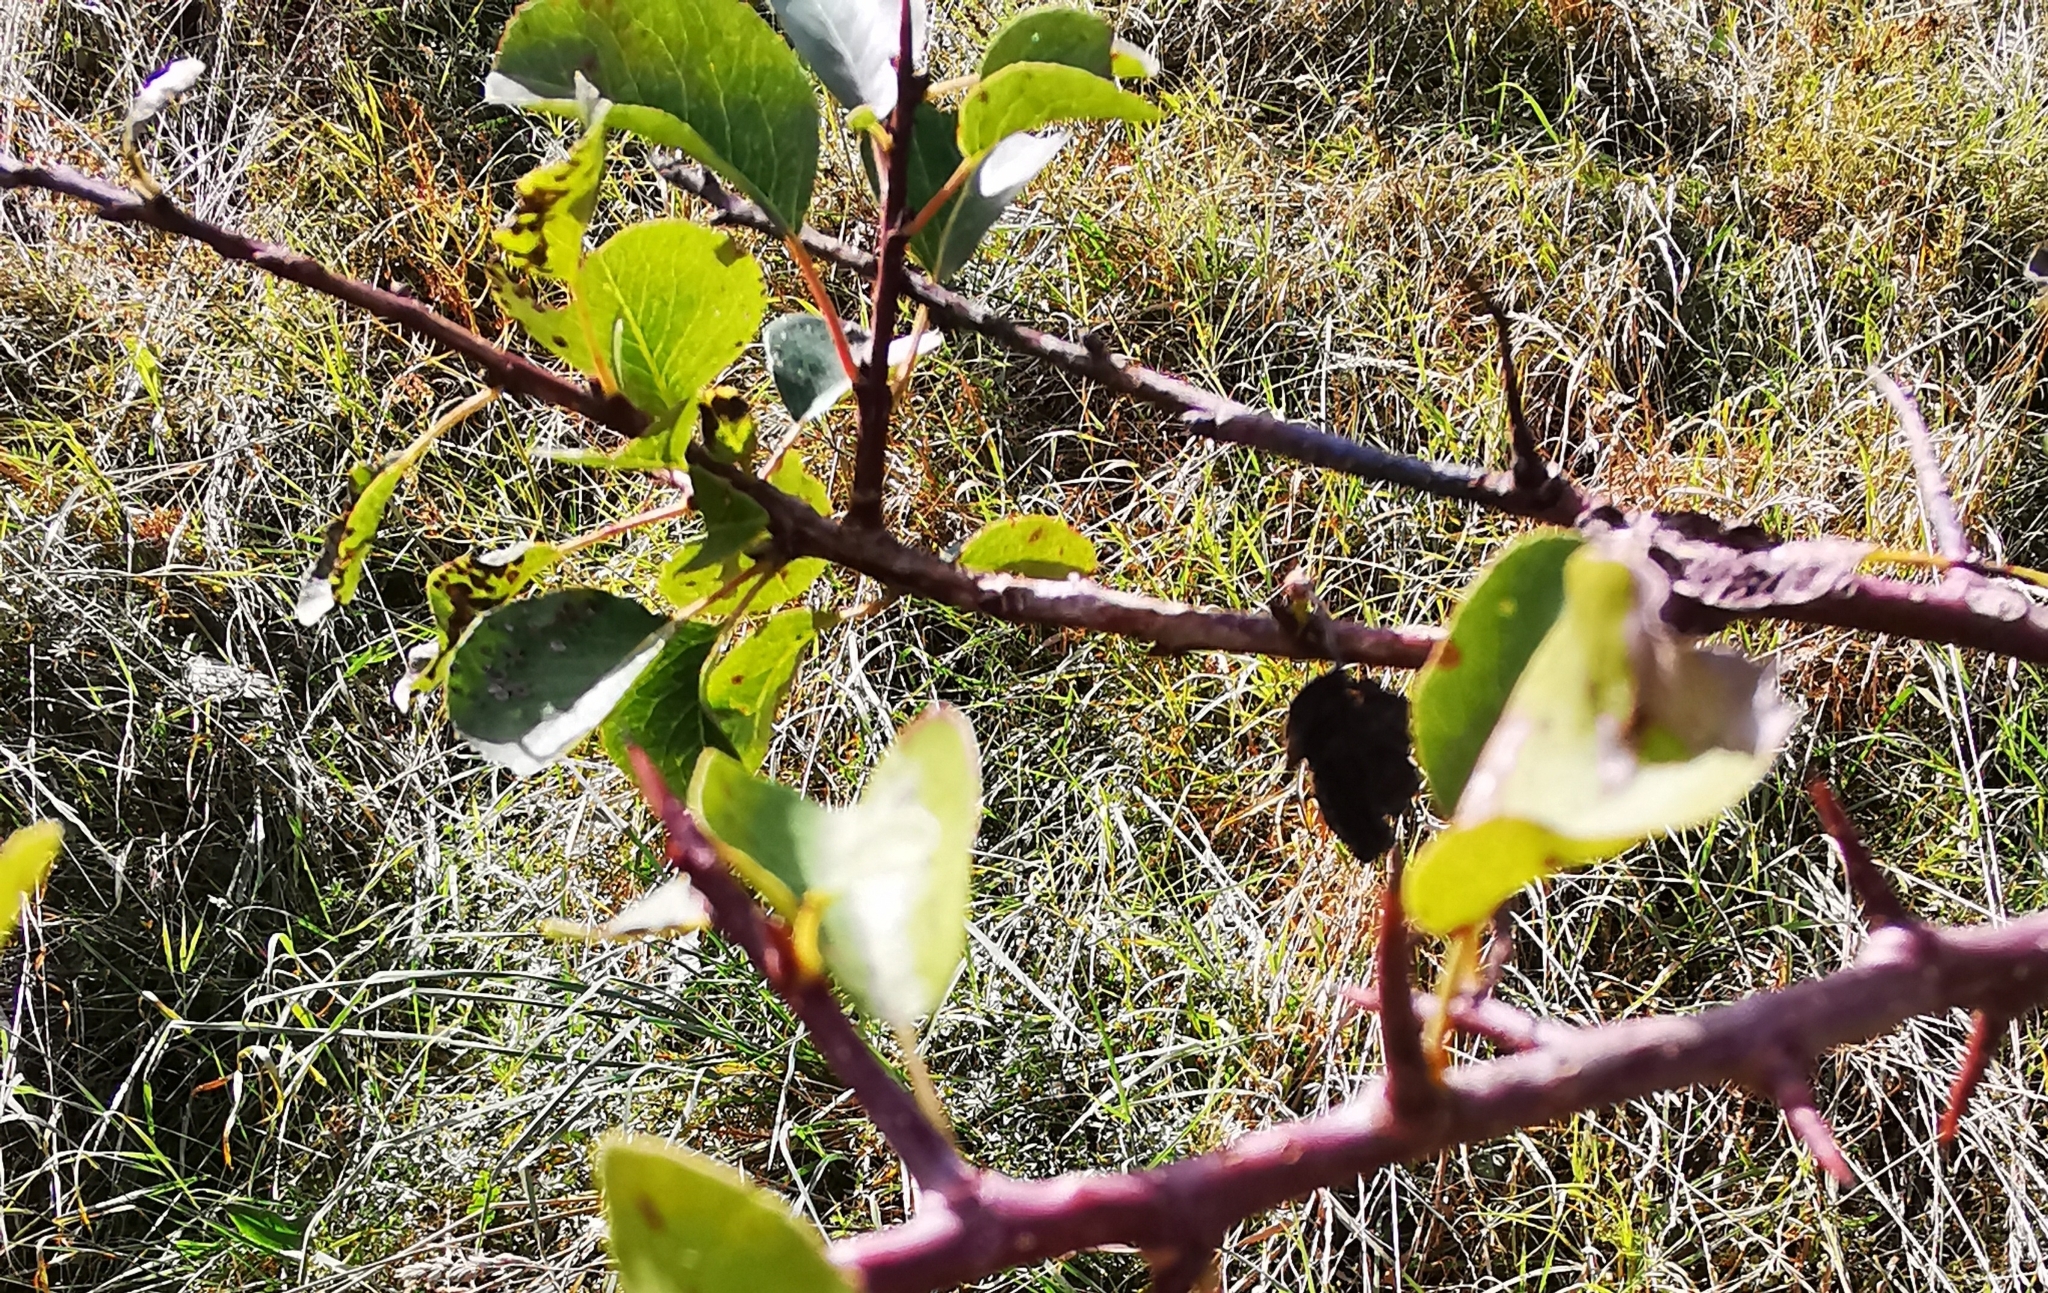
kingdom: Plantae
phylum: Tracheophyta
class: Magnoliopsida
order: Rosales
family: Rosaceae
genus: Pyrus
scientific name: Pyrus communis
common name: Pear
